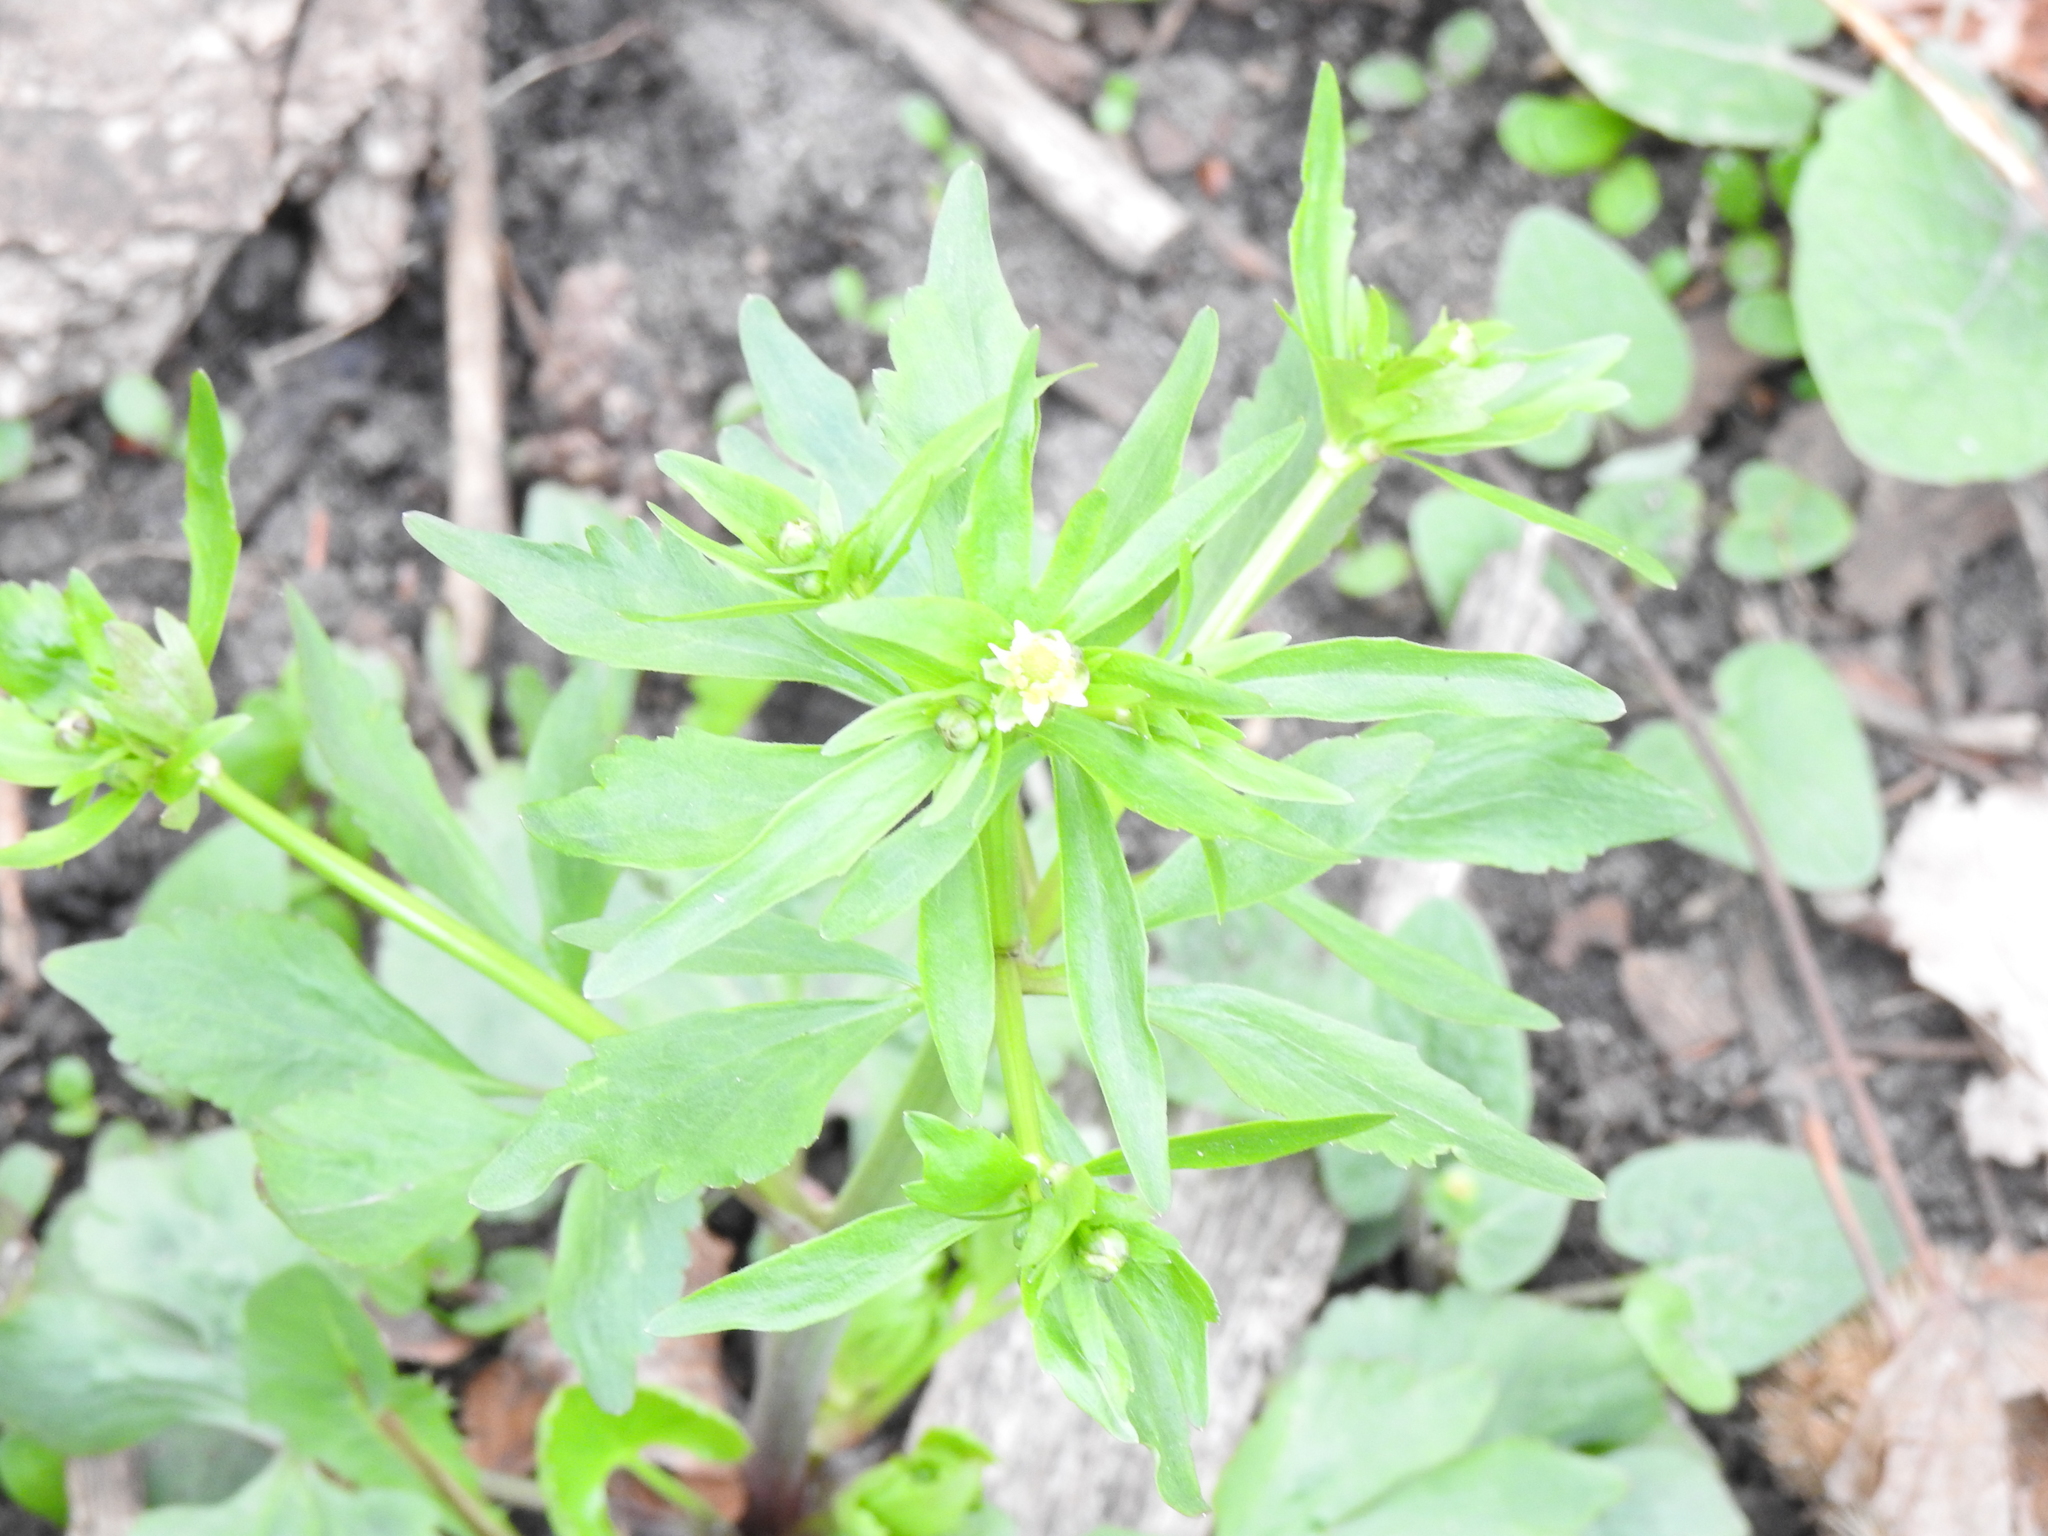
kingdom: Plantae
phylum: Tracheophyta
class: Magnoliopsida
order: Ranunculales
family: Ranunculaceae
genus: Ranunculus
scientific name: Ranunculus abortivus
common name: Early wood buttercup
